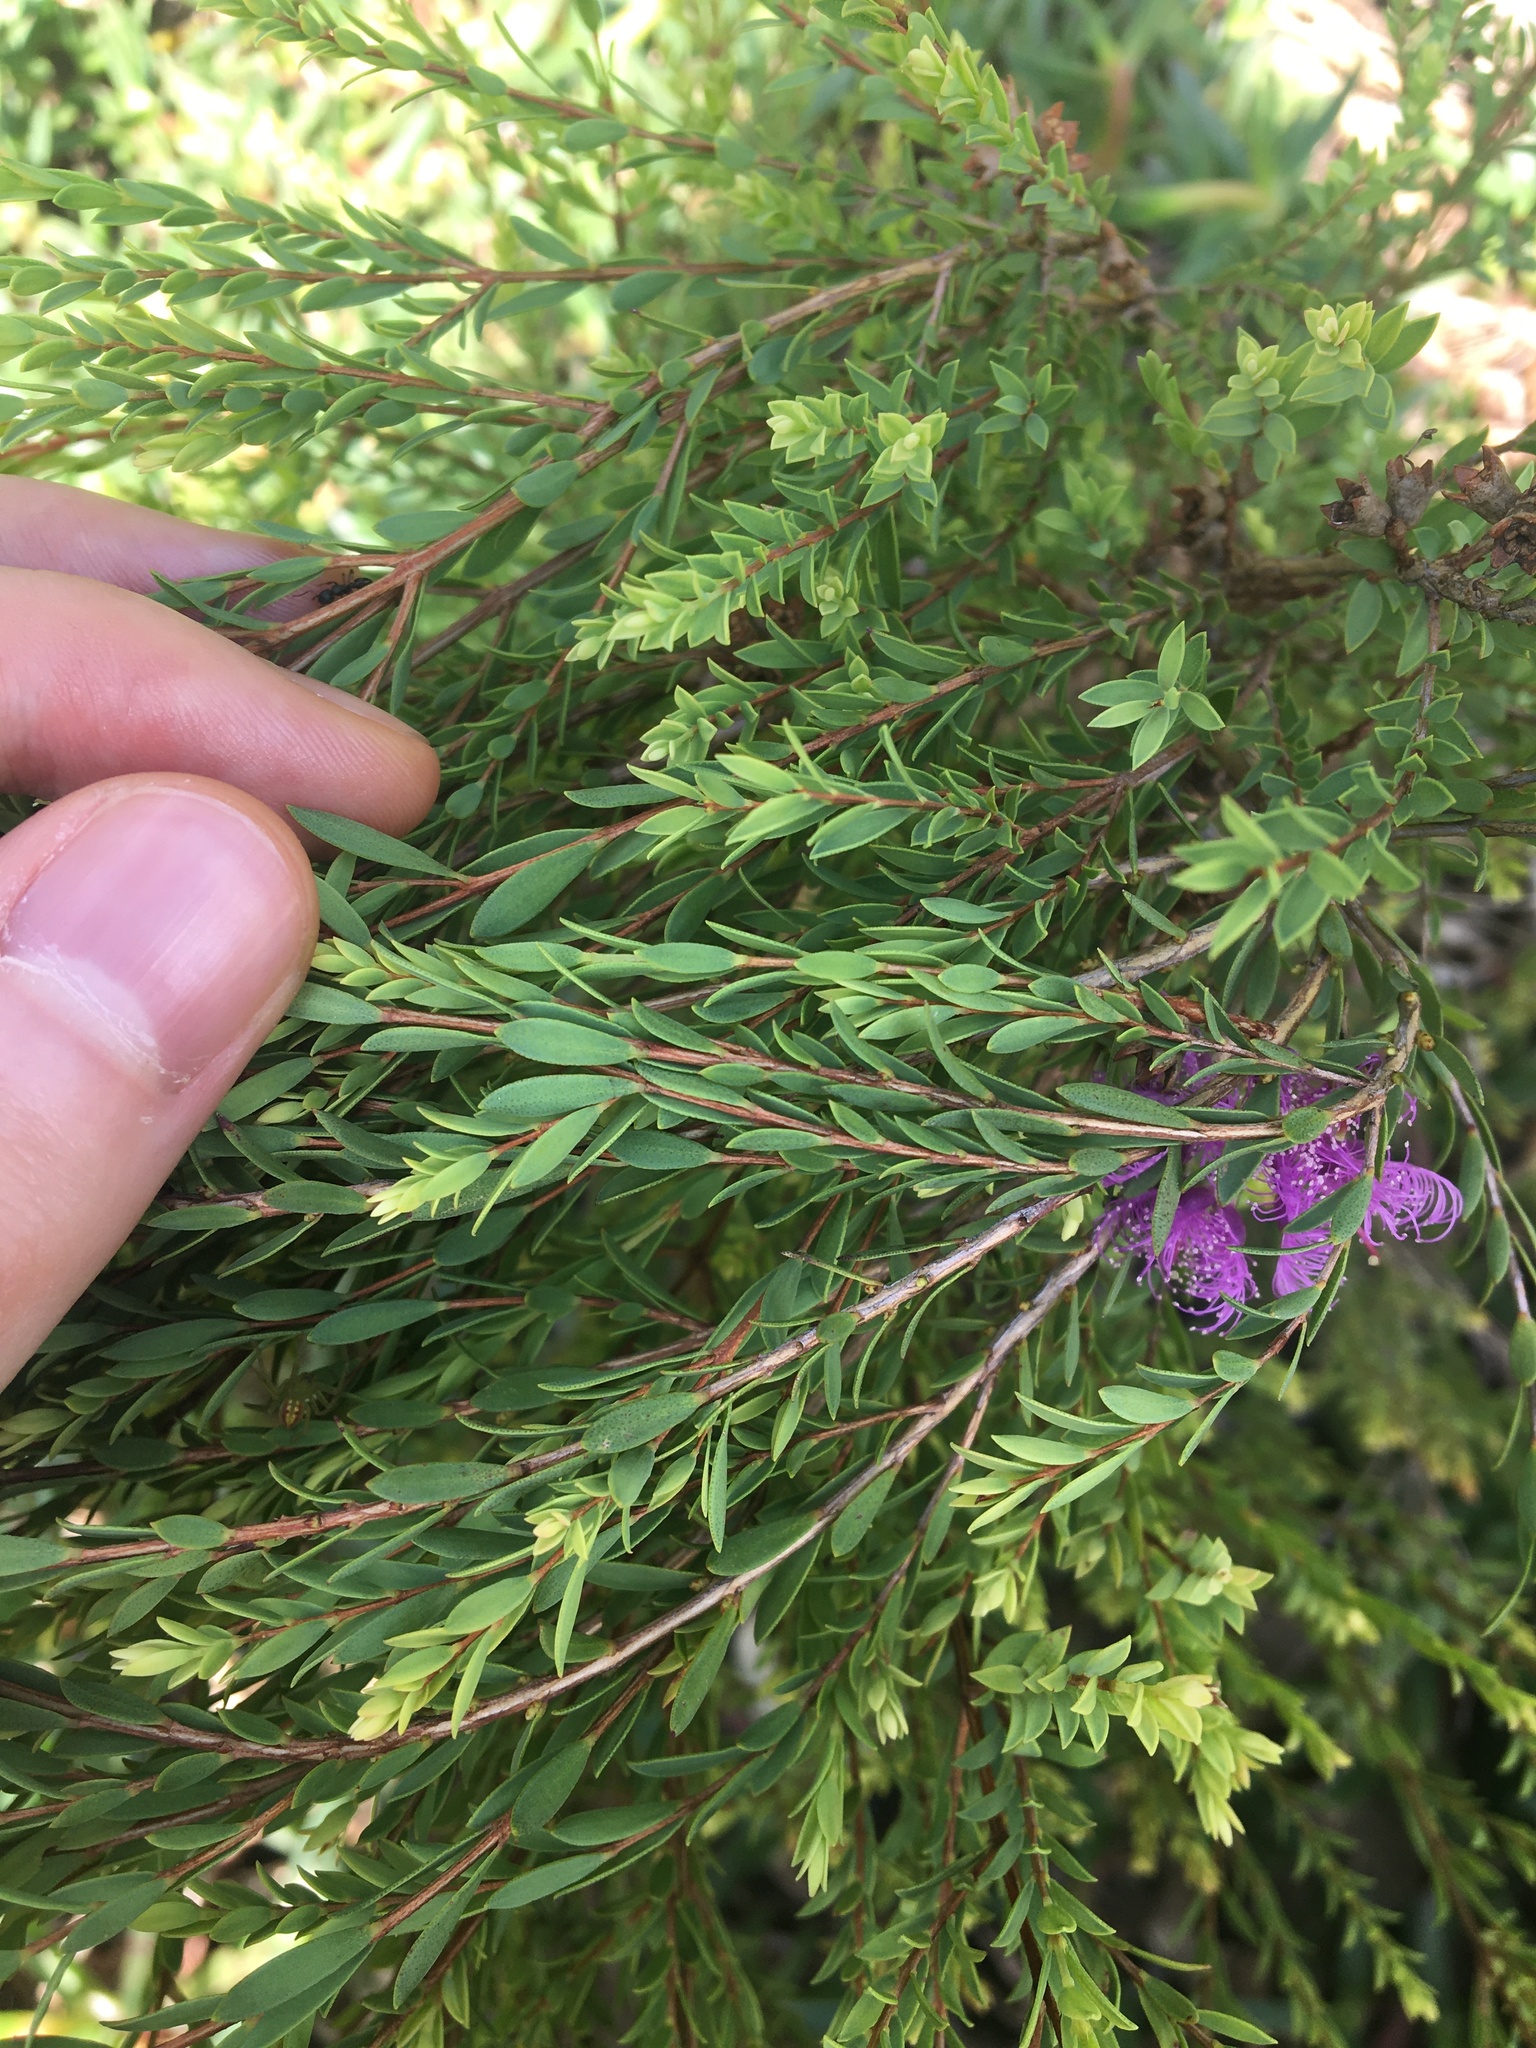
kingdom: Plantae
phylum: Tracheophyta
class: Magnoliopsida
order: Myrtales
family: Myrtaceae
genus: Melaleuca
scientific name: Melaleuca thymifolia
